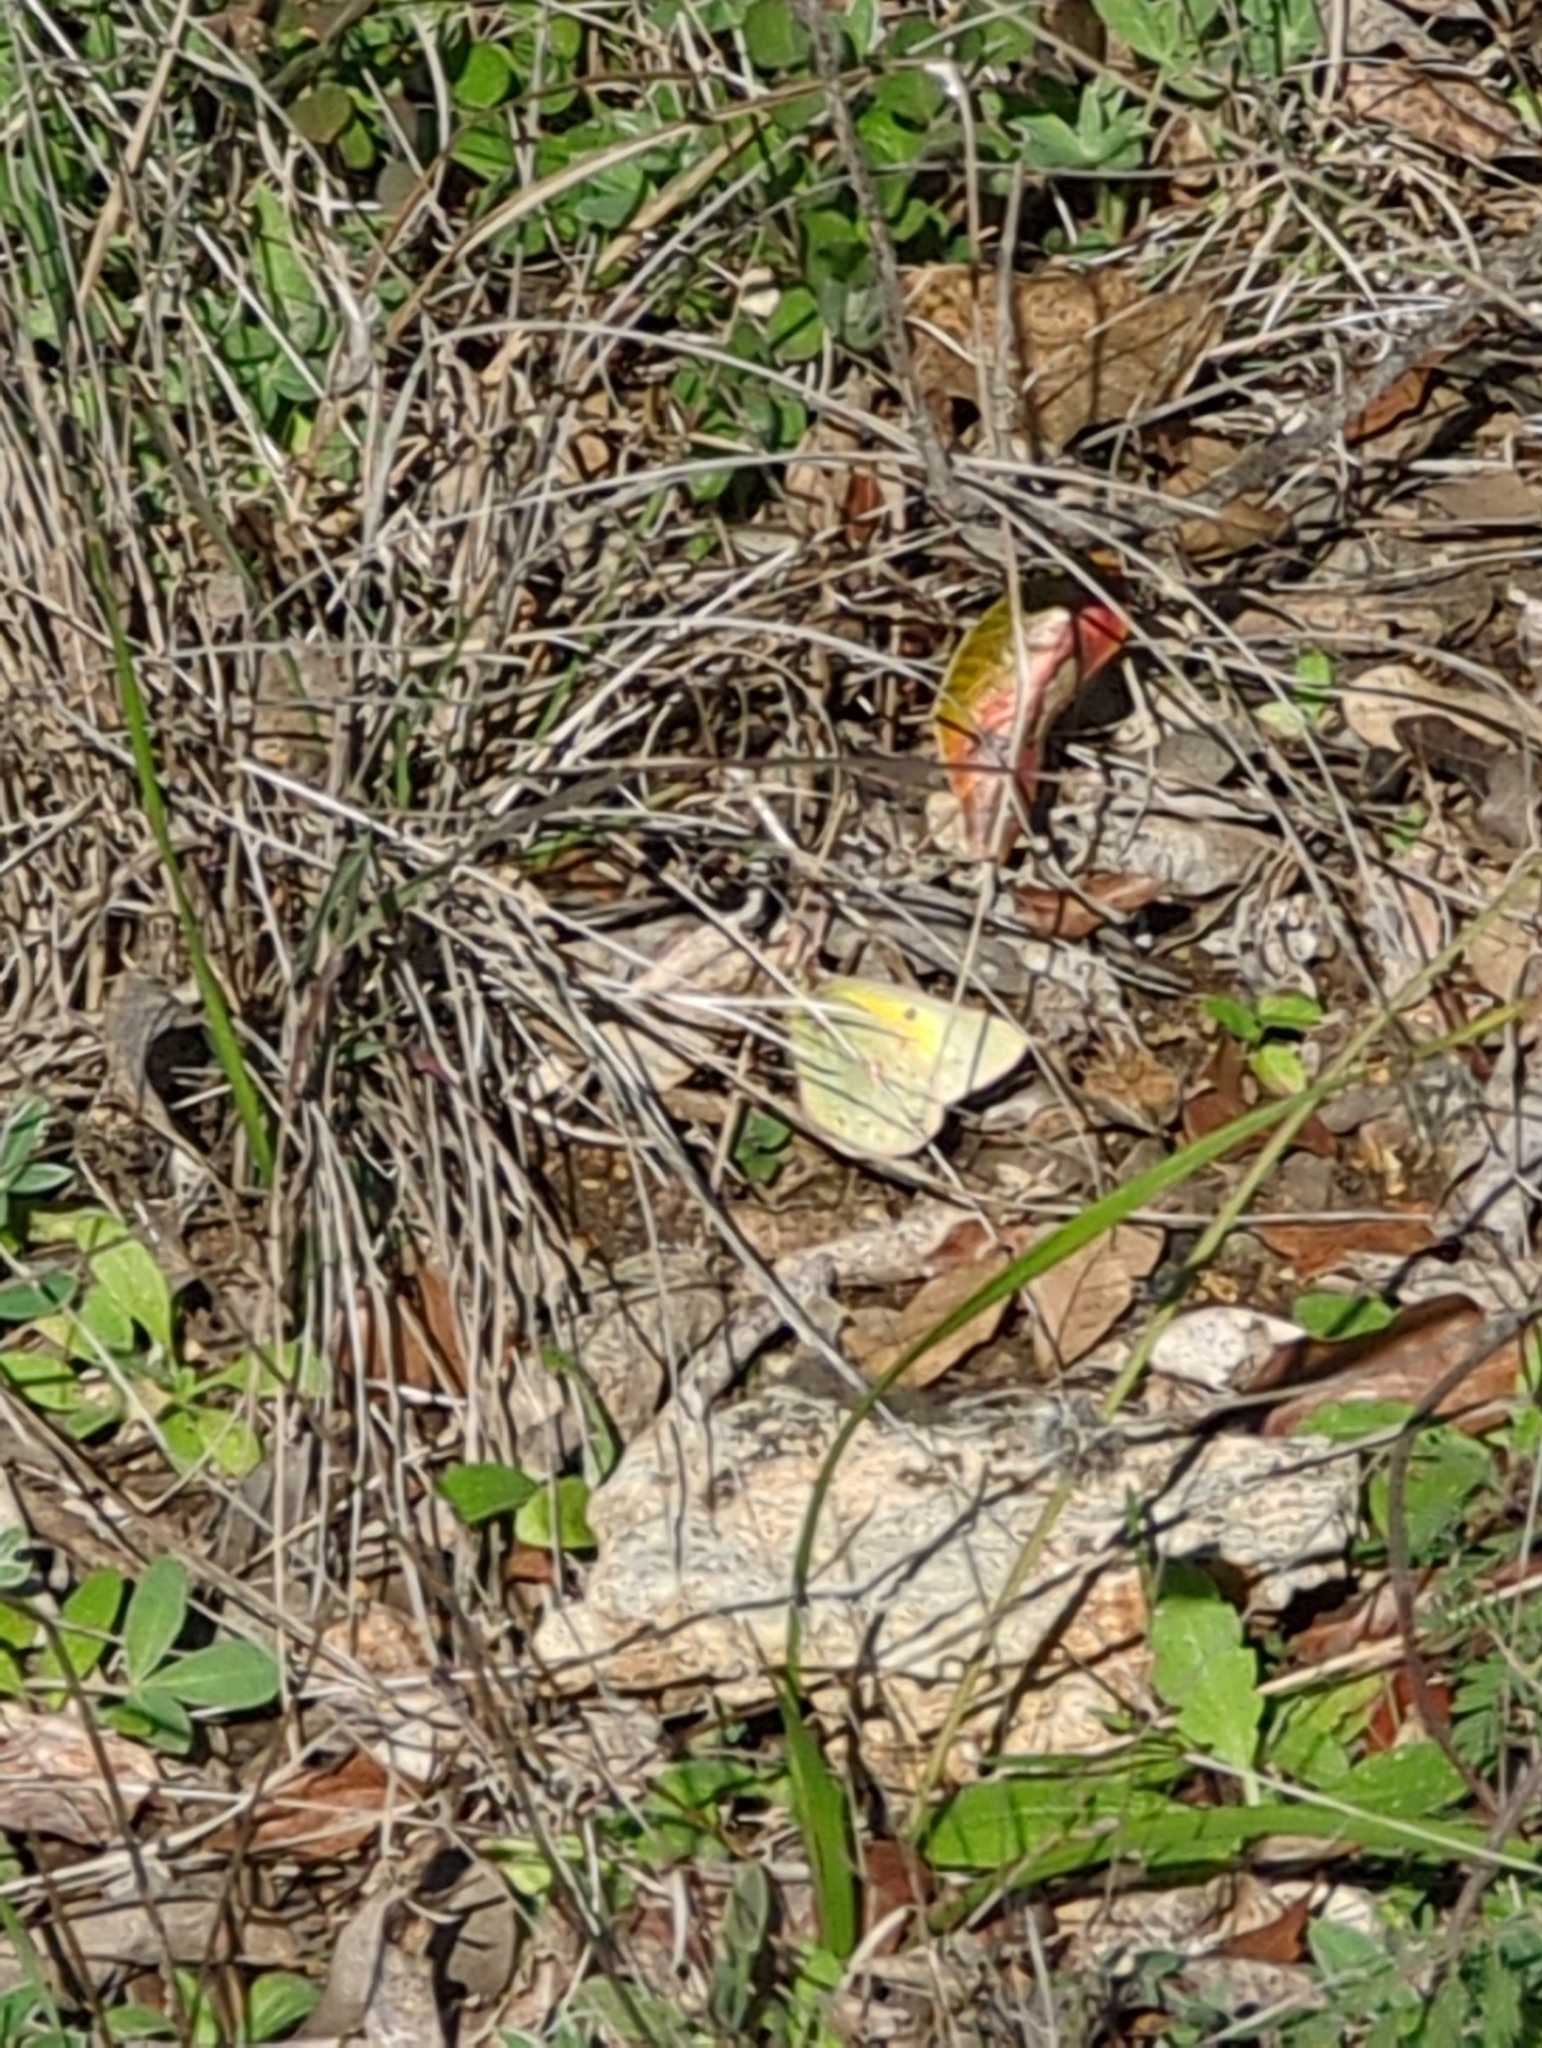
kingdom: Animalia
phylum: Arthropoda
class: Insecta
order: Lepidoptera
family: Pieridae
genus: Colias
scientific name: Colias eurytheme
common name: Alfalfa butterfly
